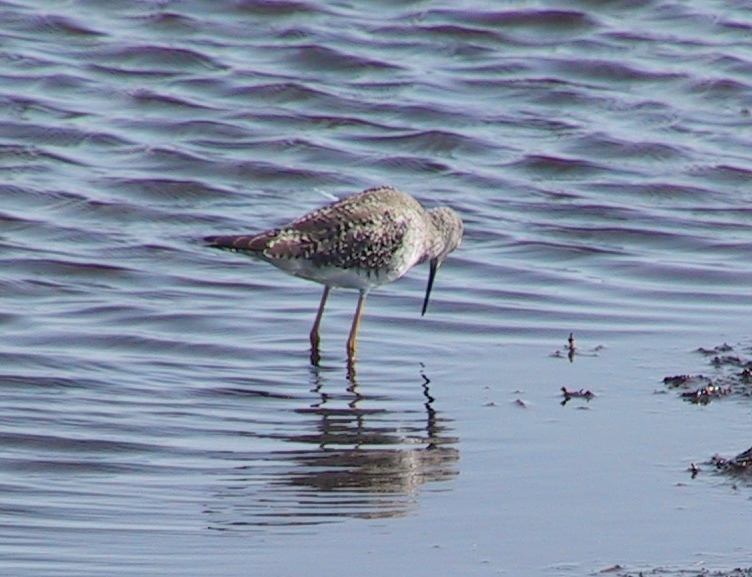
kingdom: Animalia
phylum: Chordata
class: Aves
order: Charadriiformes
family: Scolopacidae
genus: Tringa
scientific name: Tringa flavipes
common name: Lesser yellowlegs
